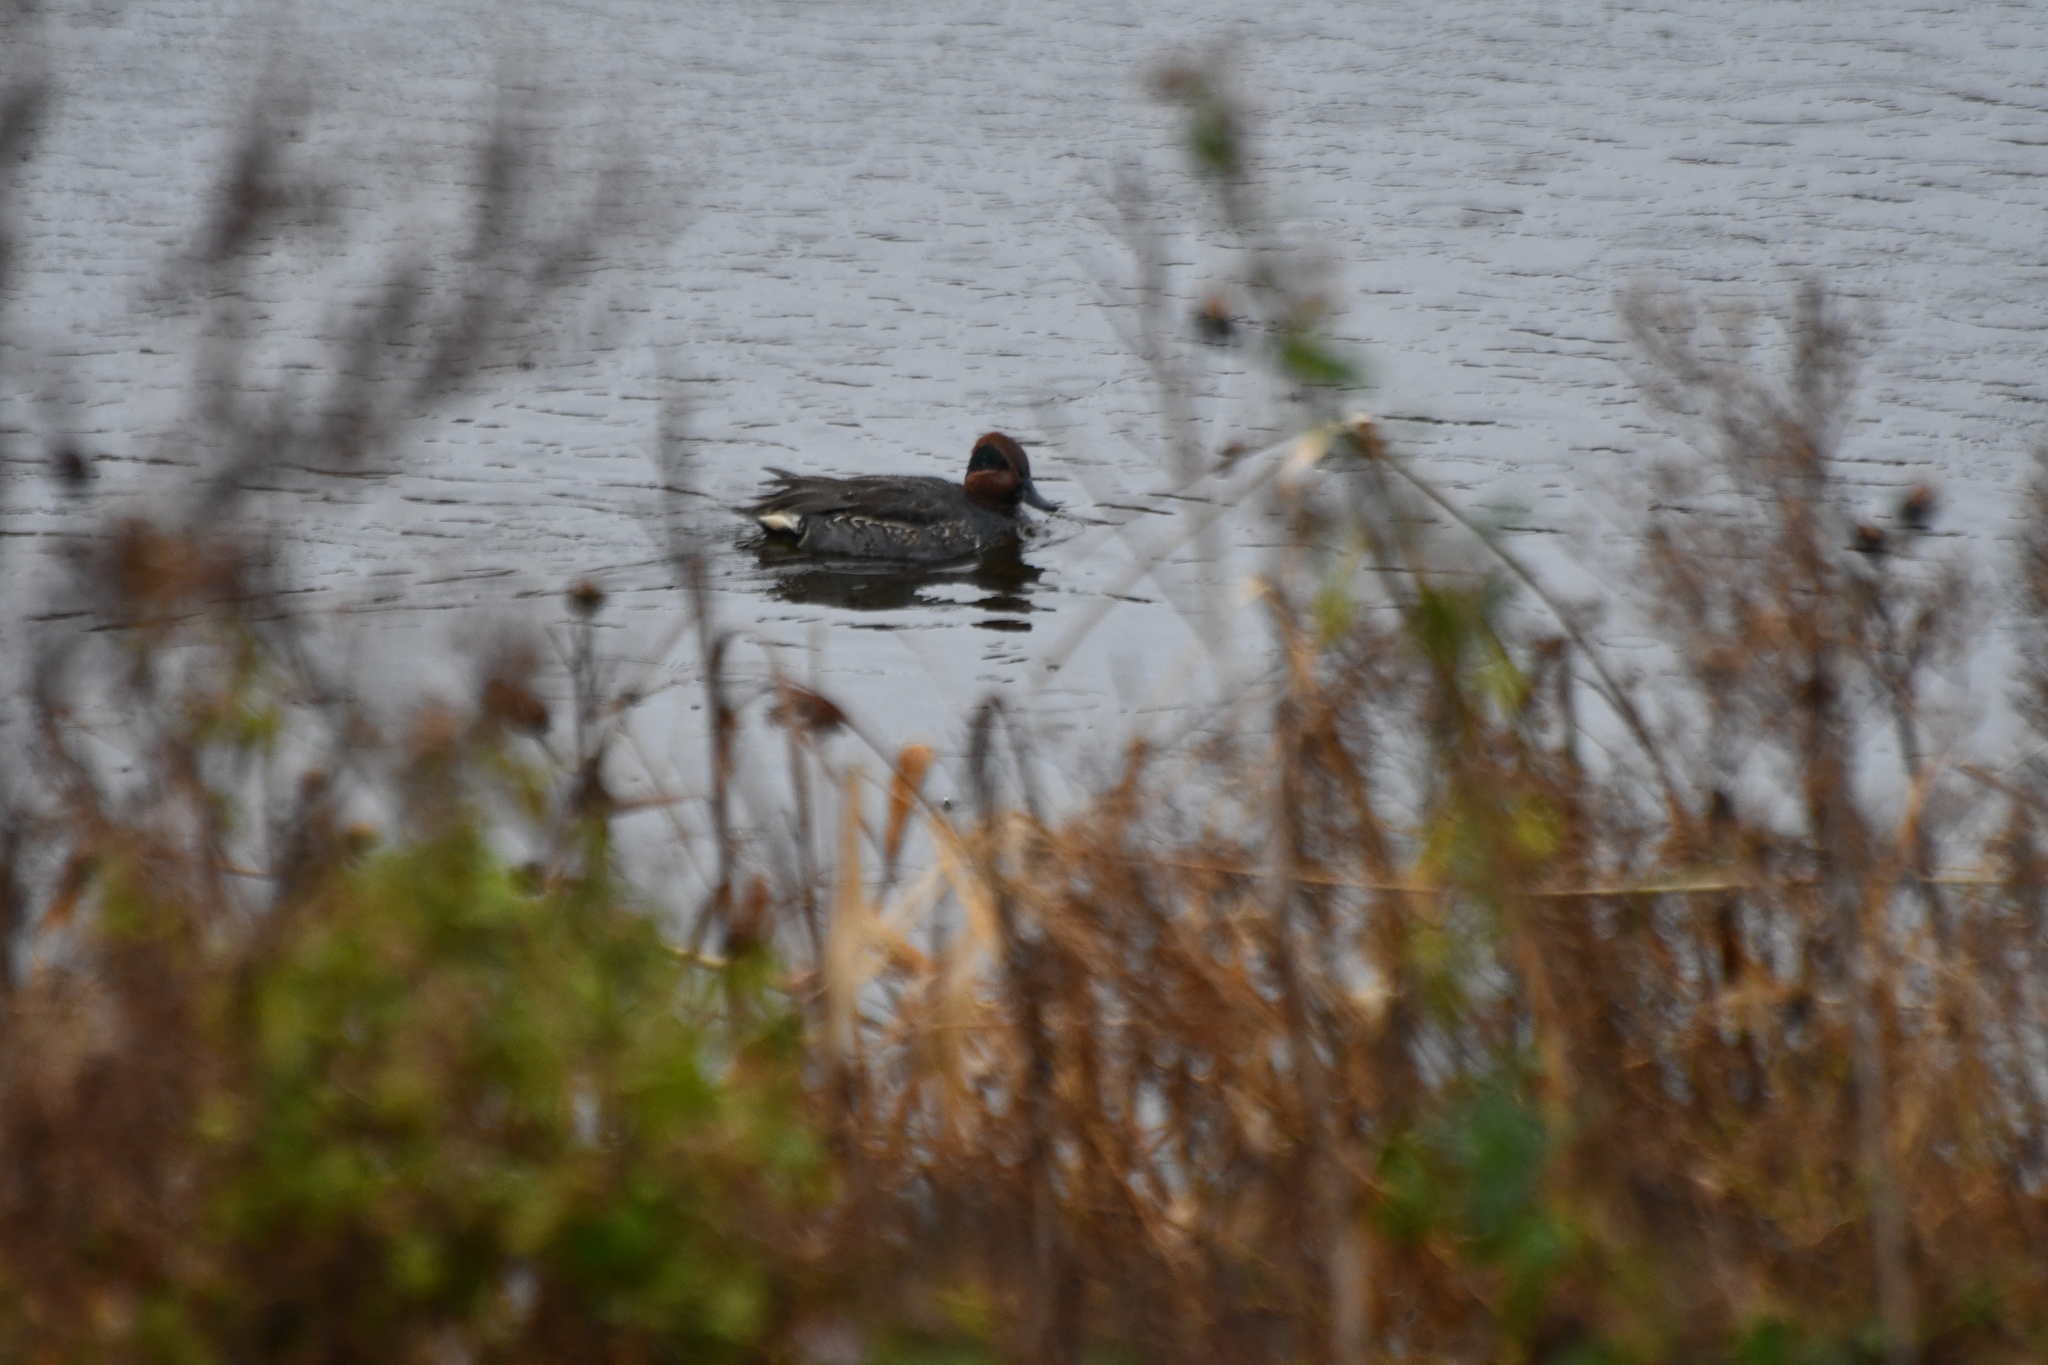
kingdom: Animalia
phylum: Chordata
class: Aves
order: Anseriformes
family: Anatidae
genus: Anas
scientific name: Anas crecca
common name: Eurasian teal
